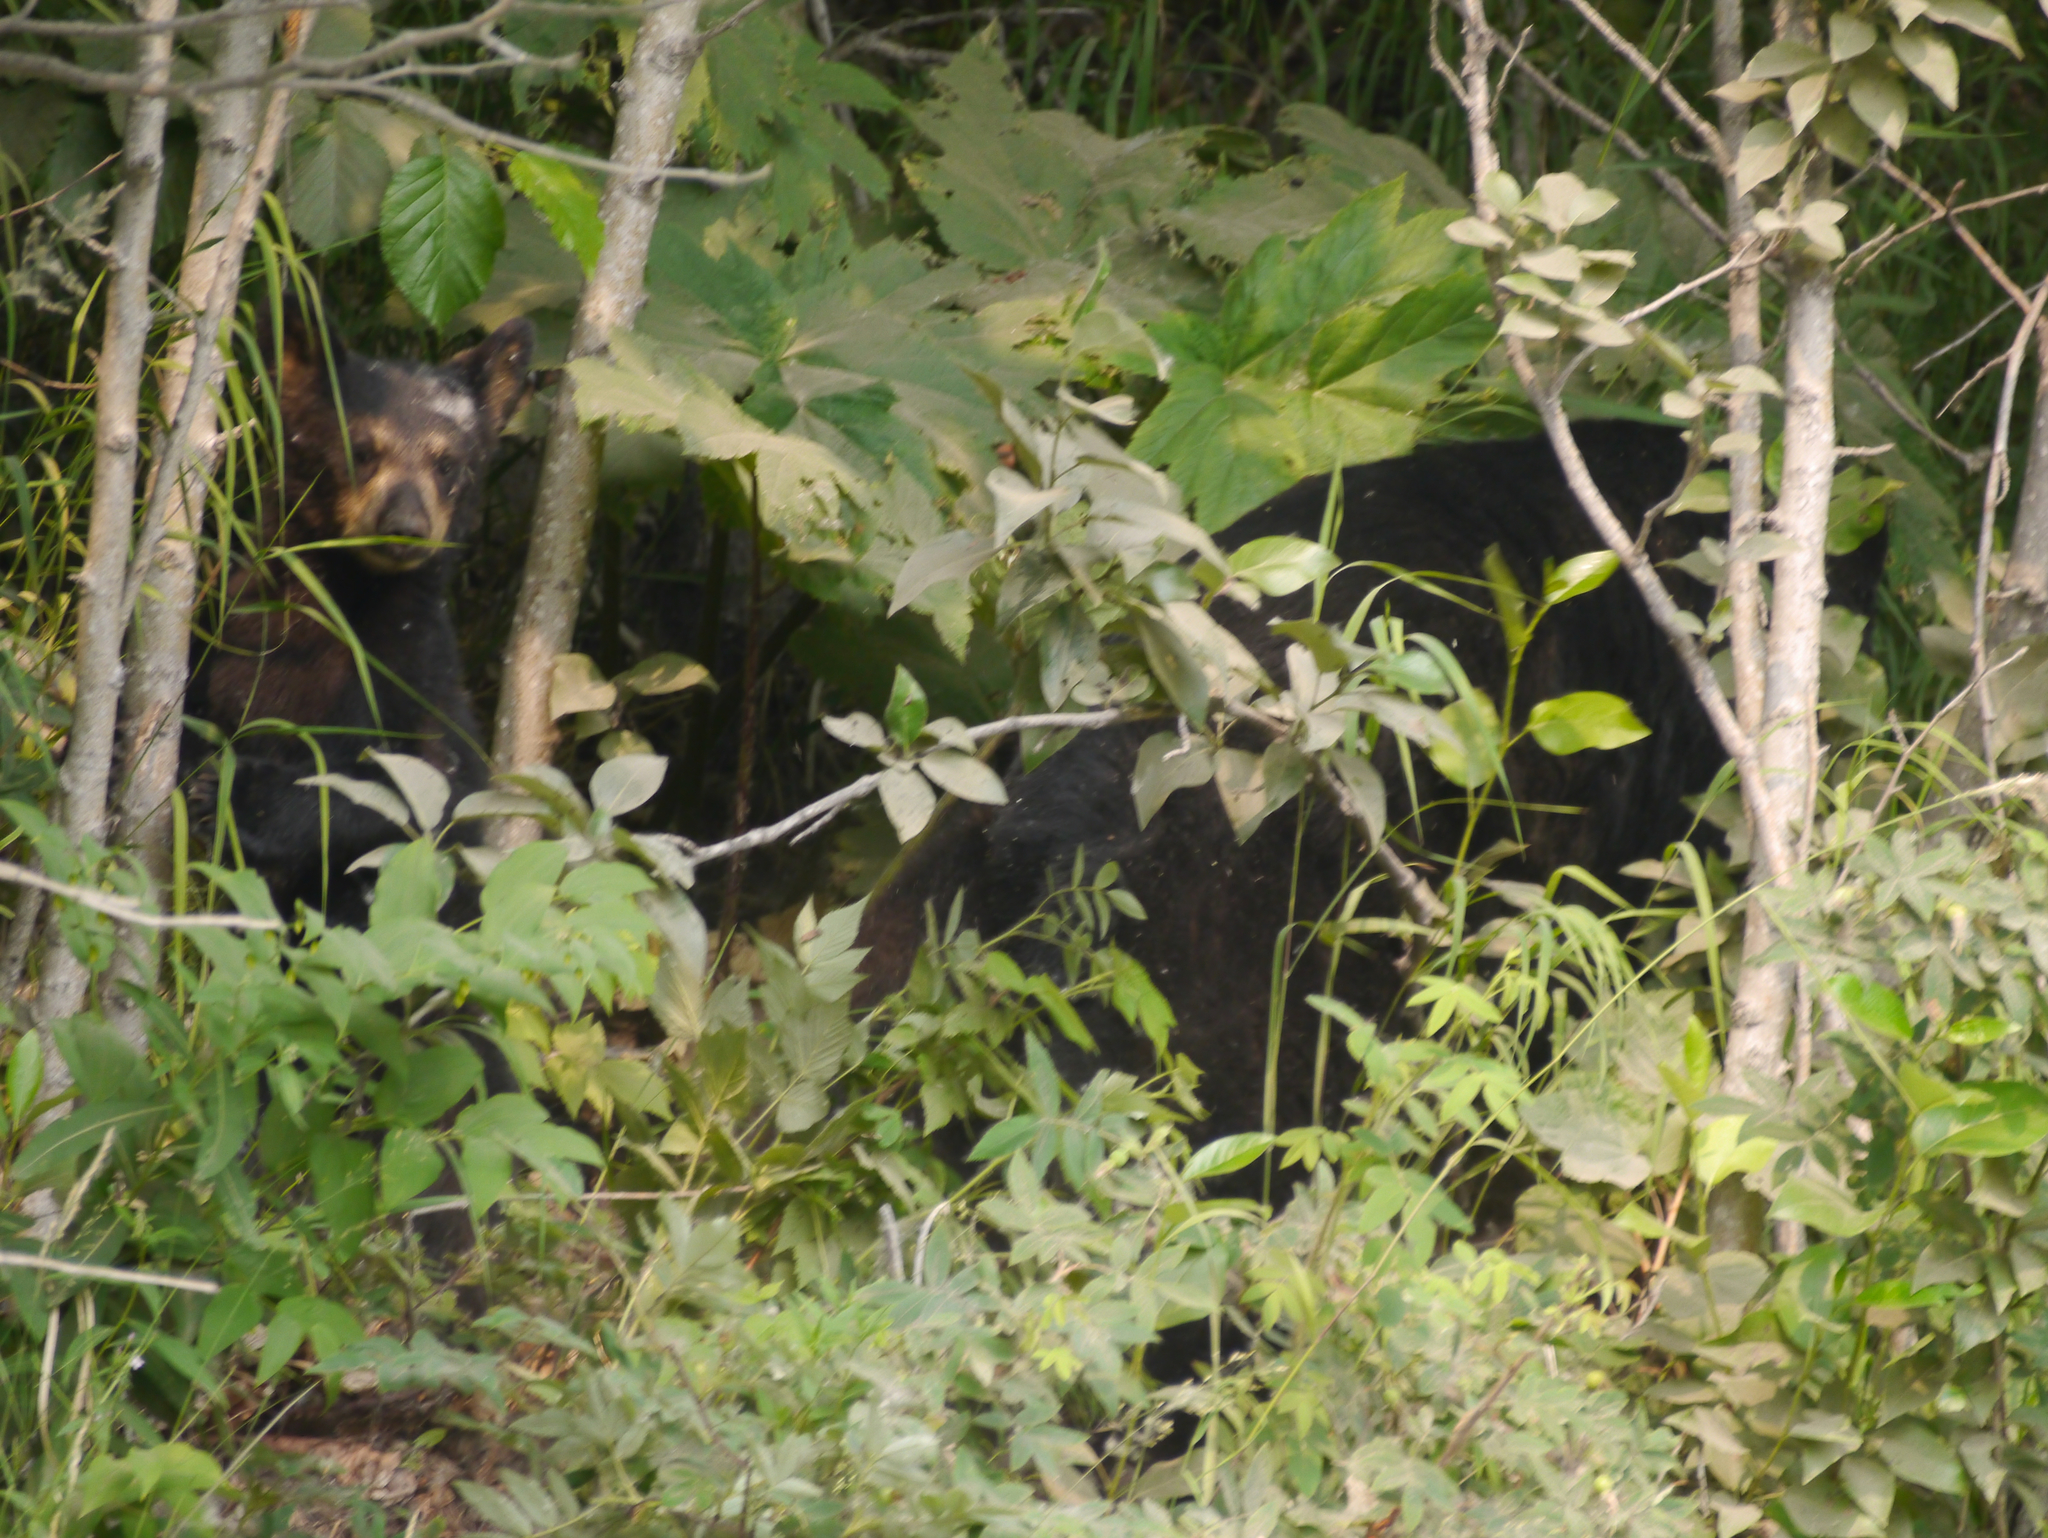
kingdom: Animalia
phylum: Chordata
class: Mammalia
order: Carnivora
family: Ursidae
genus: Ursus
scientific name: Ursus americanus
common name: American black bear
